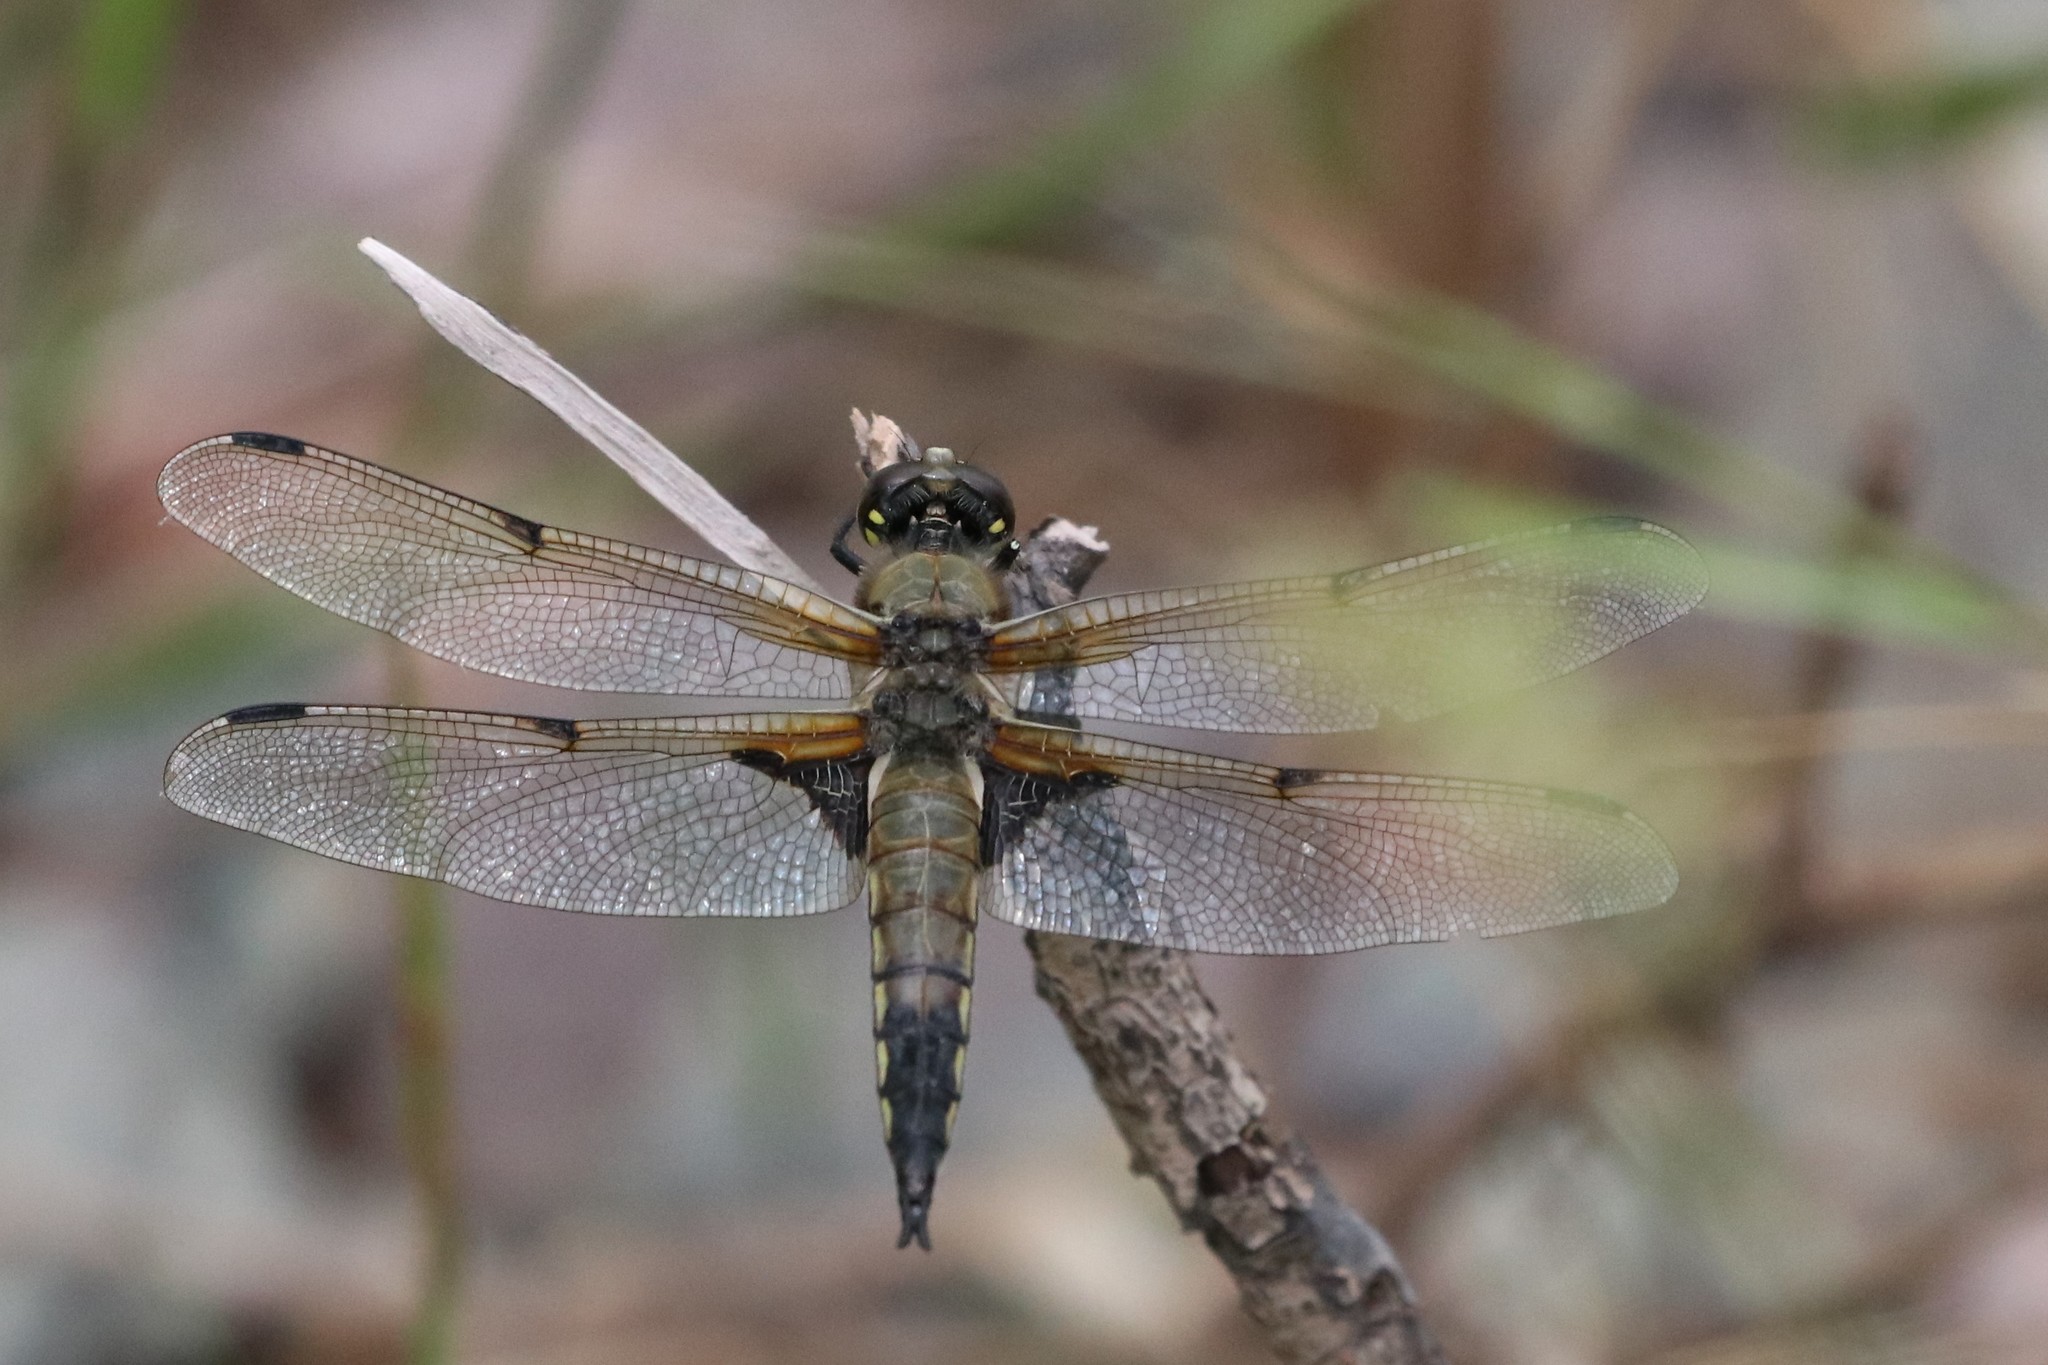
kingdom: Animalia
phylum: Arthropoda
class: Insecta
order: Odonata
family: Libellulidae
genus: Libellula
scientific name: Libellula quadrimaculata
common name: Four-spotted chaser
